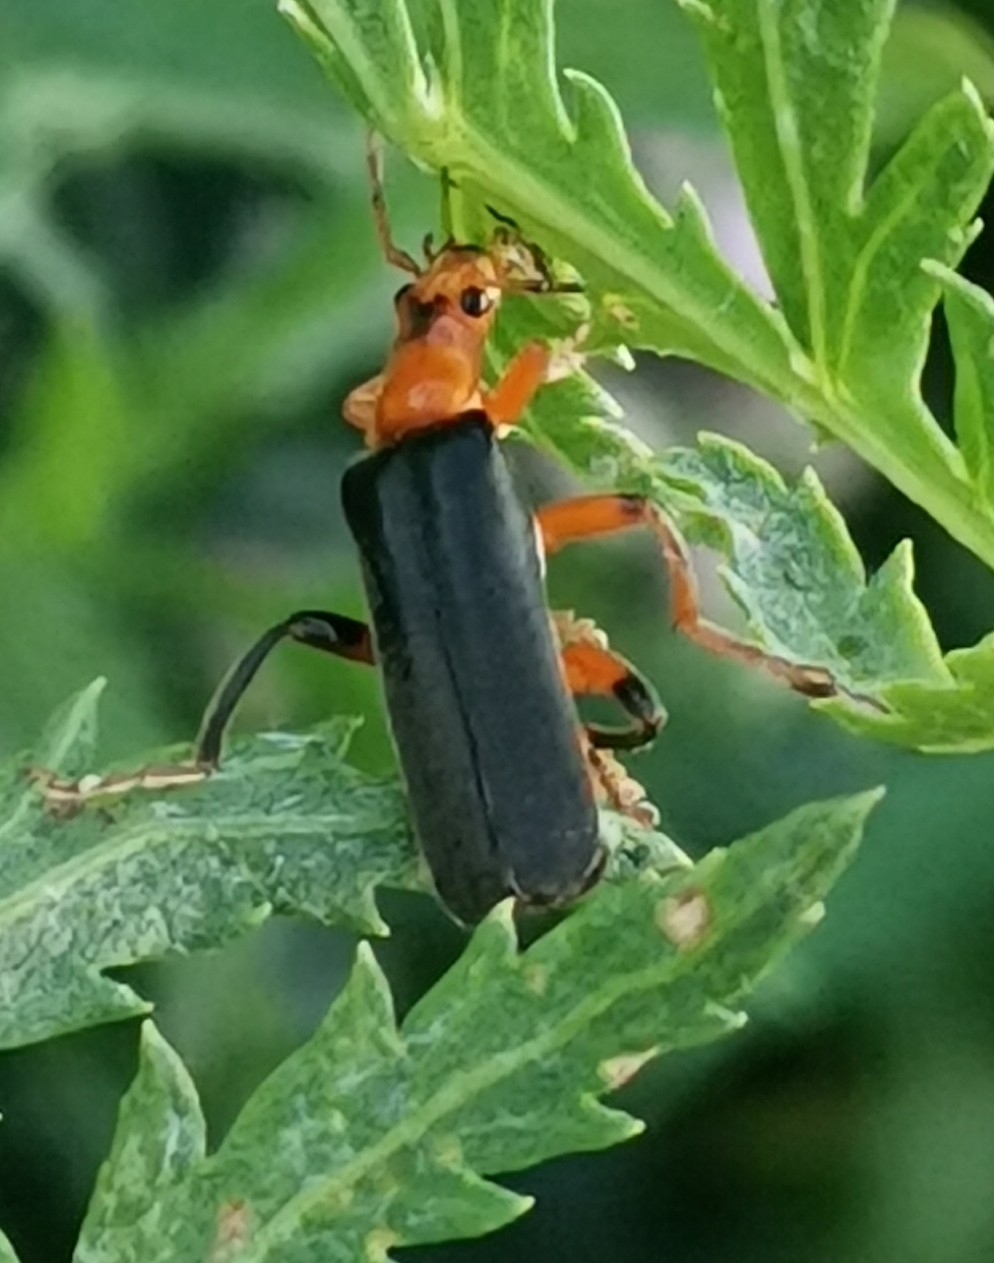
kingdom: Animalia
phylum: Arthropoda
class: Insecta
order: Coleoptera
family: Cantharidae
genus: Cantharis
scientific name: Cantharis livida
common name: Livid soldier beetle
